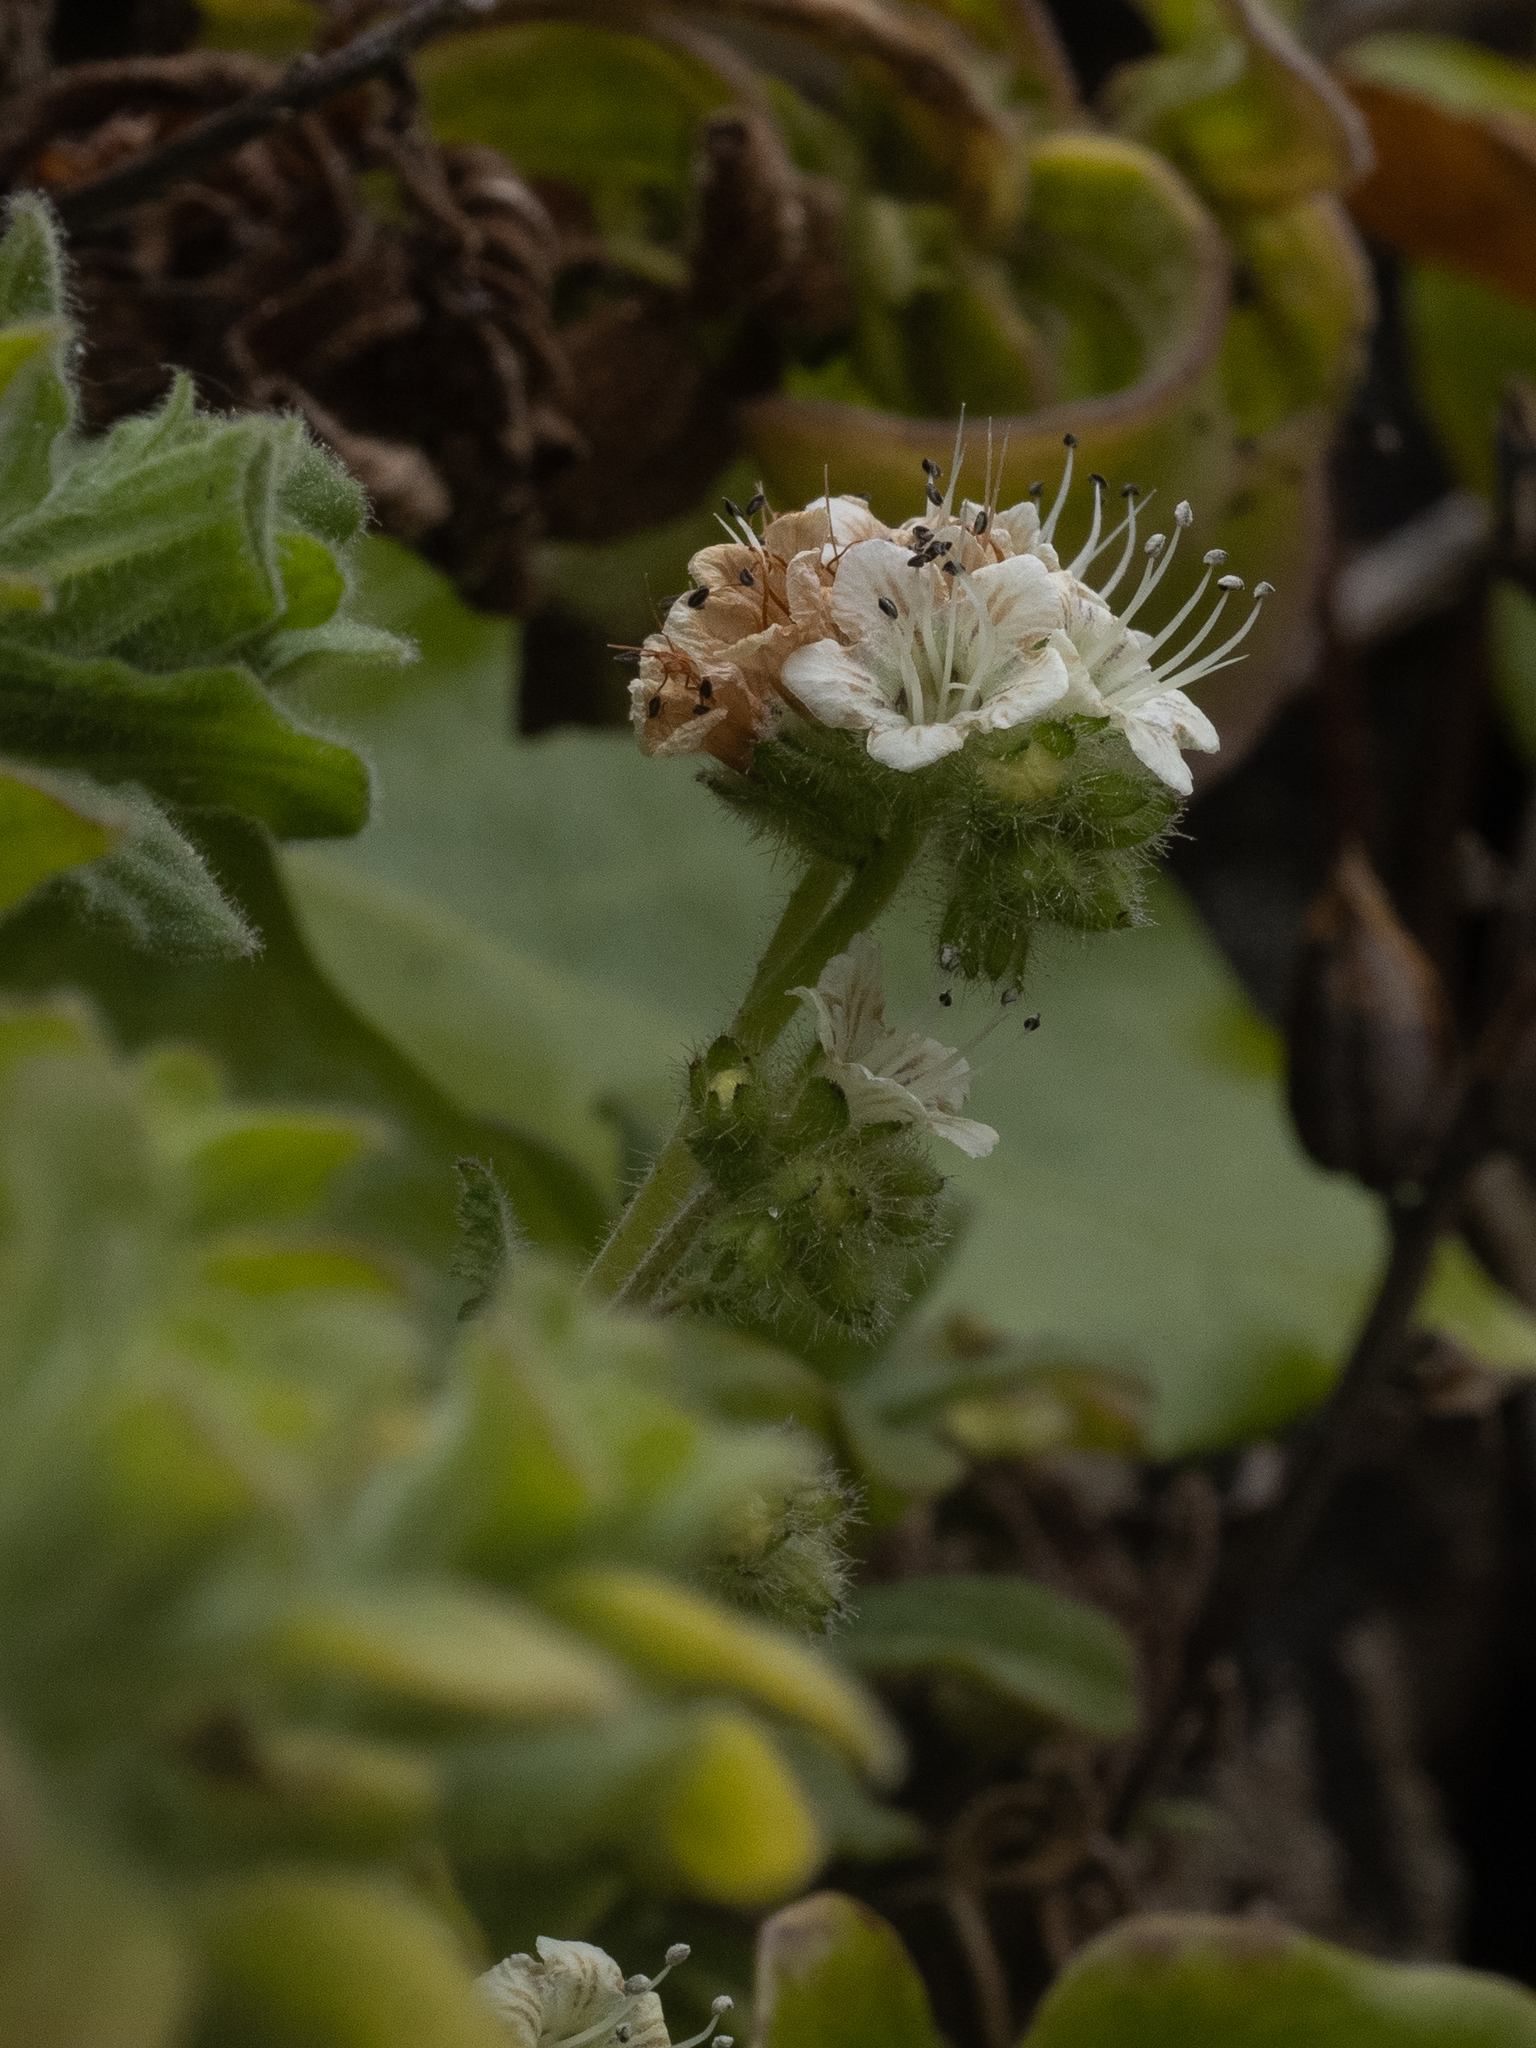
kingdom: Plantae
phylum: Tracheophyta
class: Magnoliopsida
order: Boraginales
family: Hydrophyllaceae
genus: Phacelia
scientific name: Phacelia malvifolia
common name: Mallow-leaf phacelia
